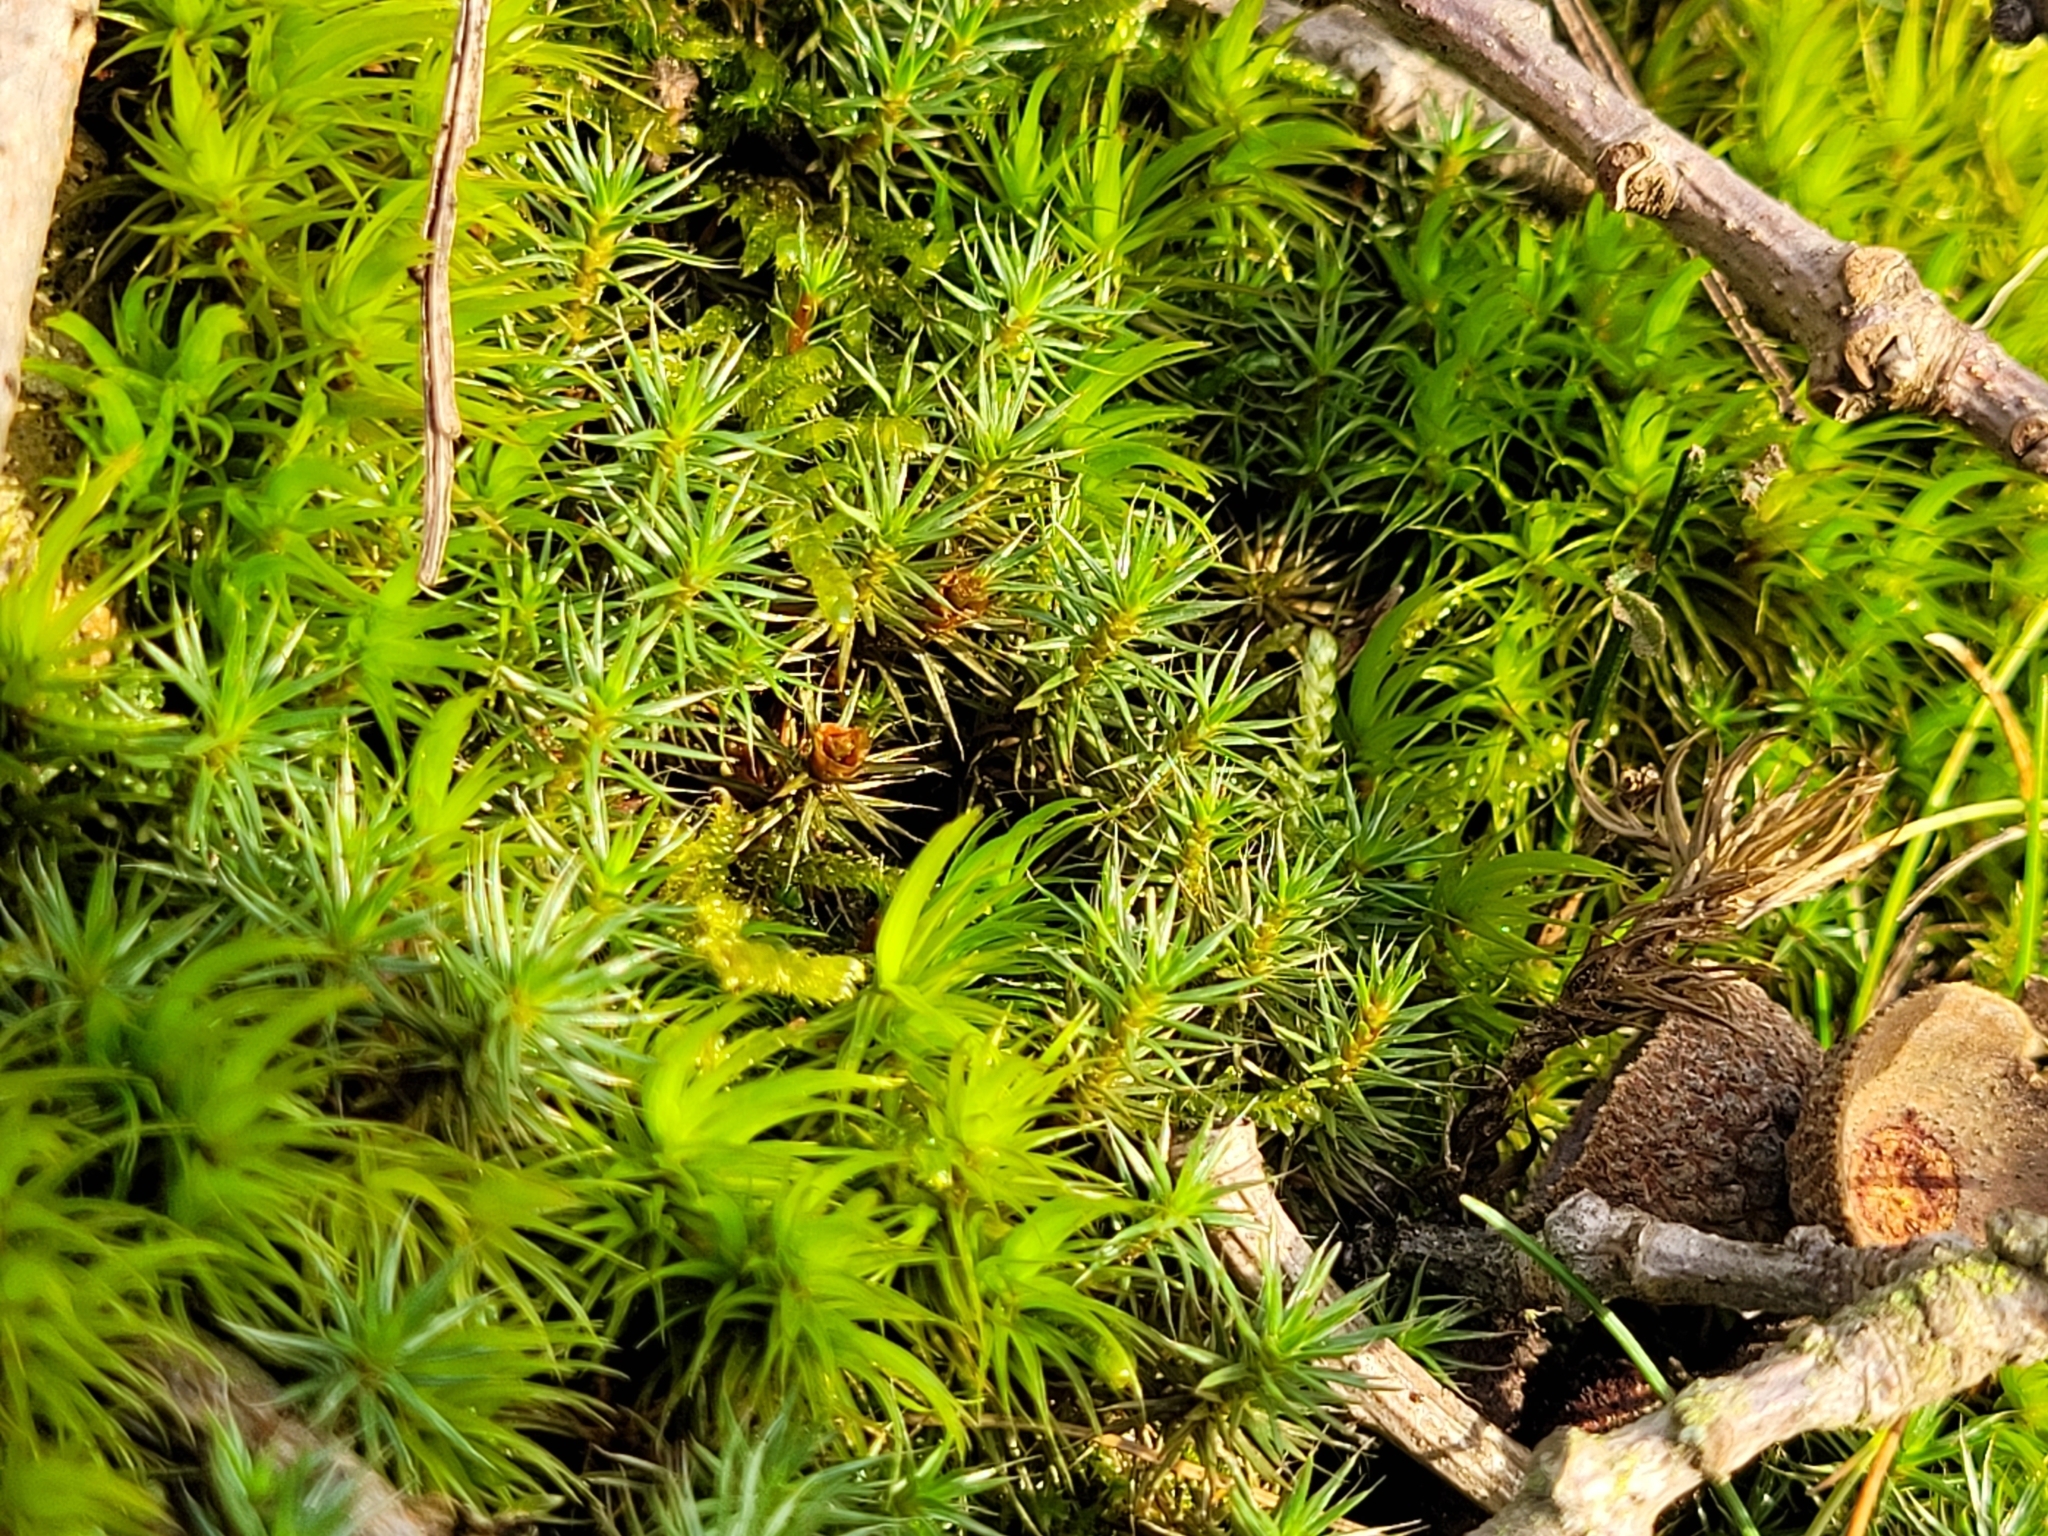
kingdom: Plantae
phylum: Bryophyta
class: Polytrichopsida
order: Polytrichales
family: Polytrichaceae
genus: Polytrichum
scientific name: Polytrichum piliferum
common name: Bristly haircap
